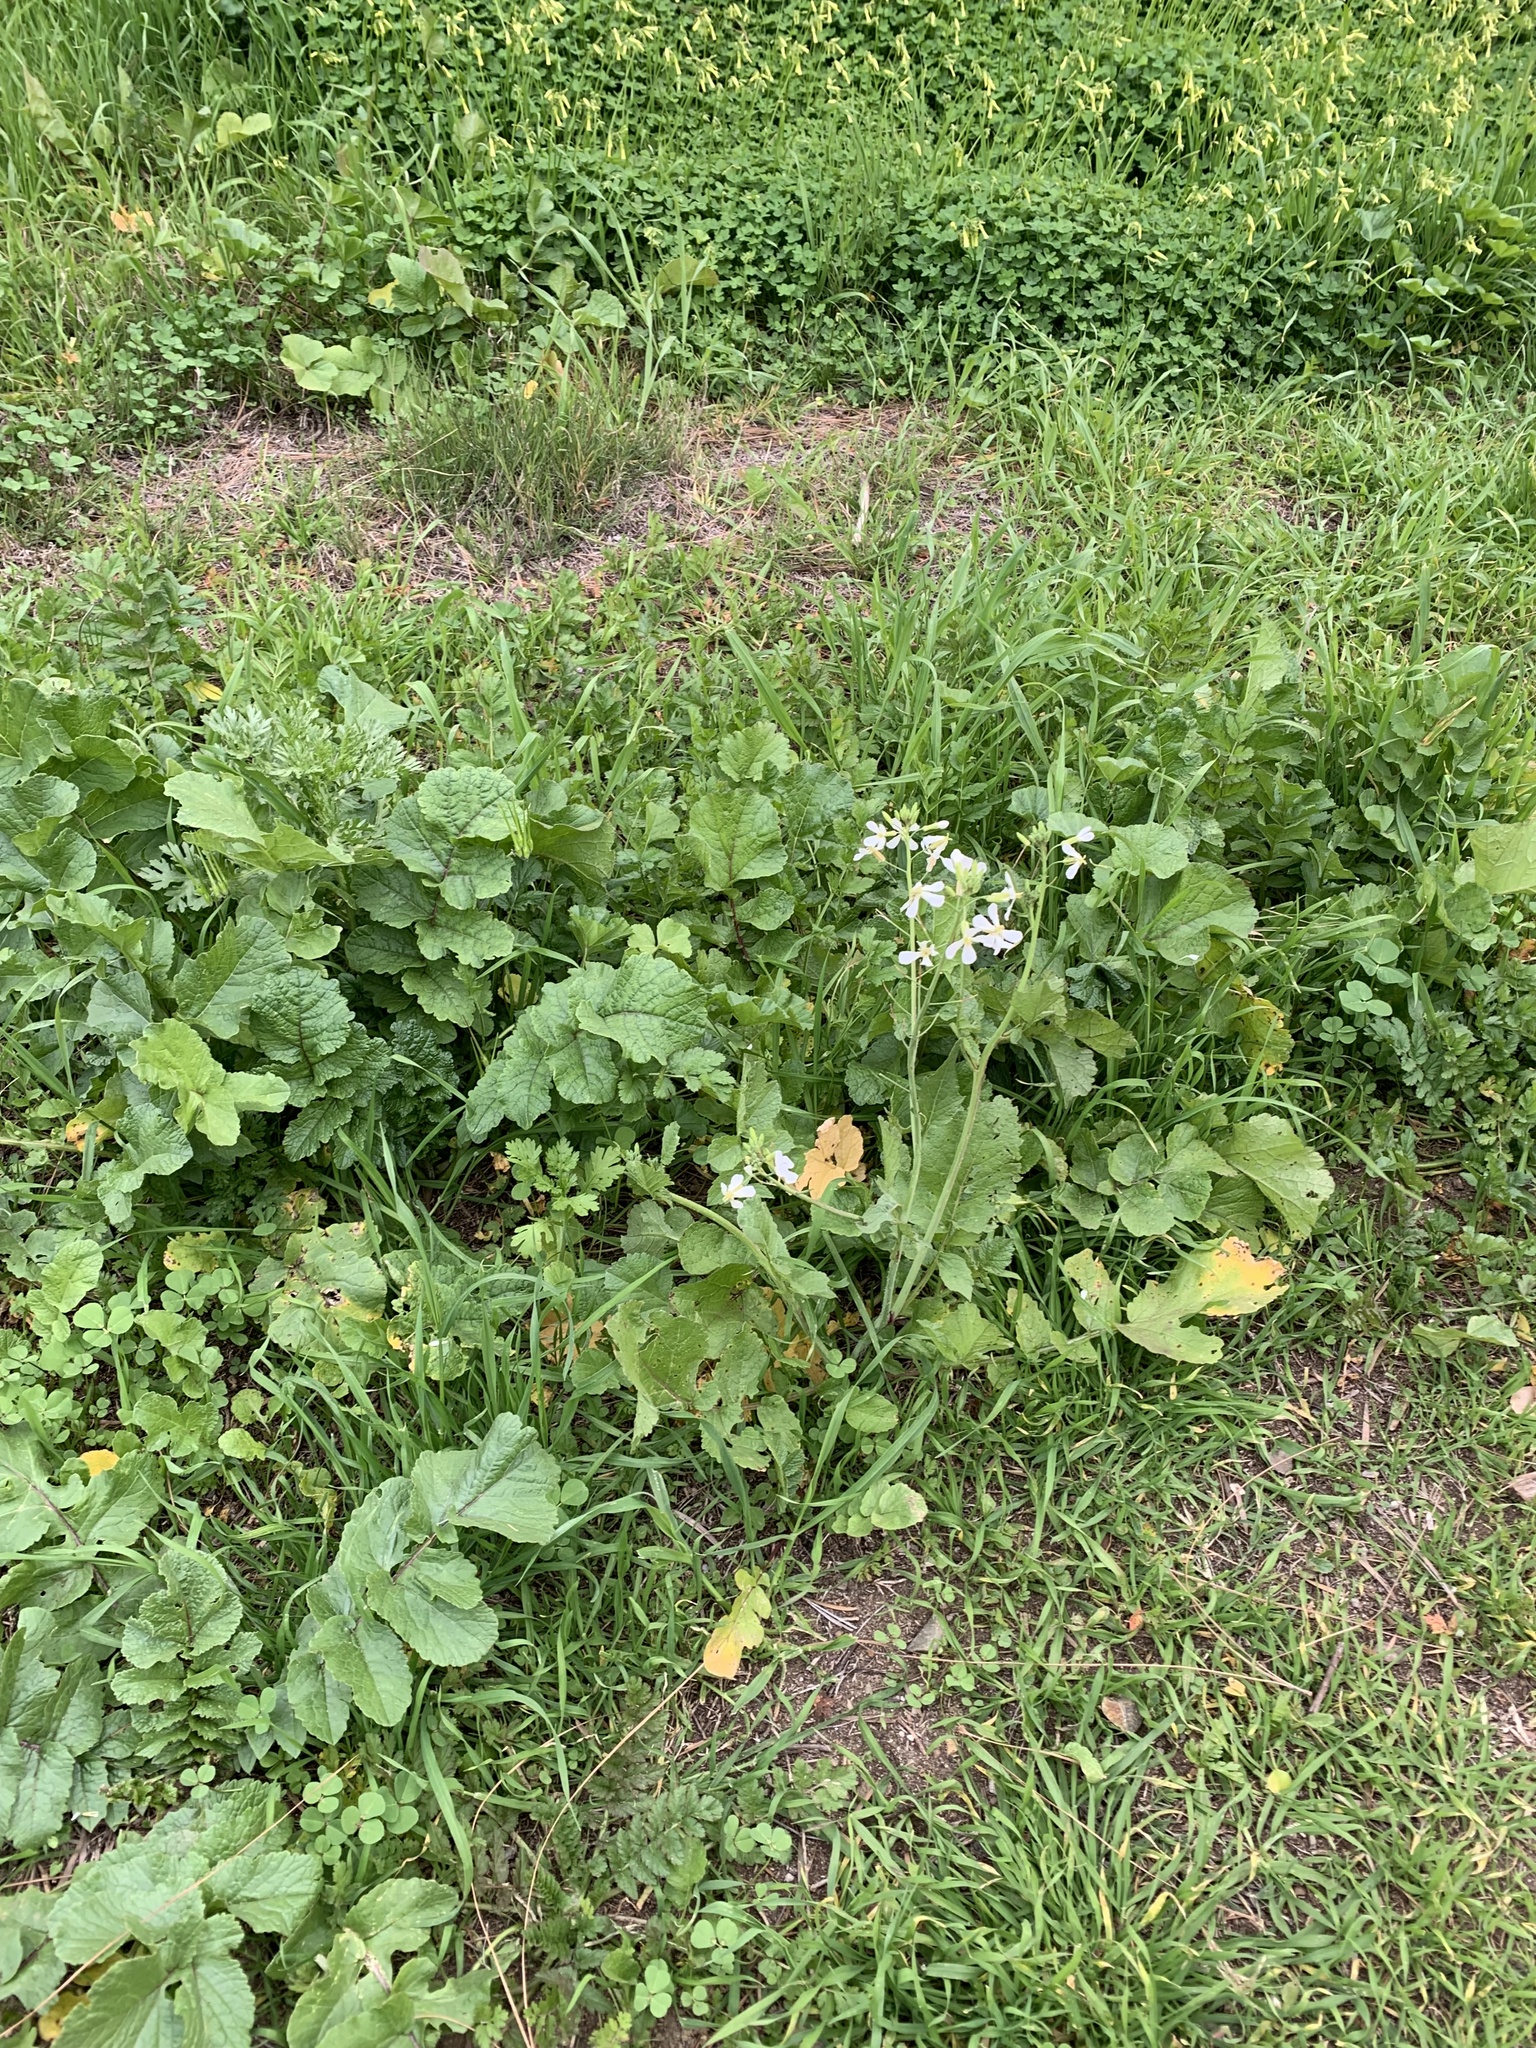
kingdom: Plantae
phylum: Tracheophyta
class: Magnoliopsida
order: Brassicales
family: Brassicaceae
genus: Raphanus
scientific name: Raphanus sativus
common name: Cultivated radish
